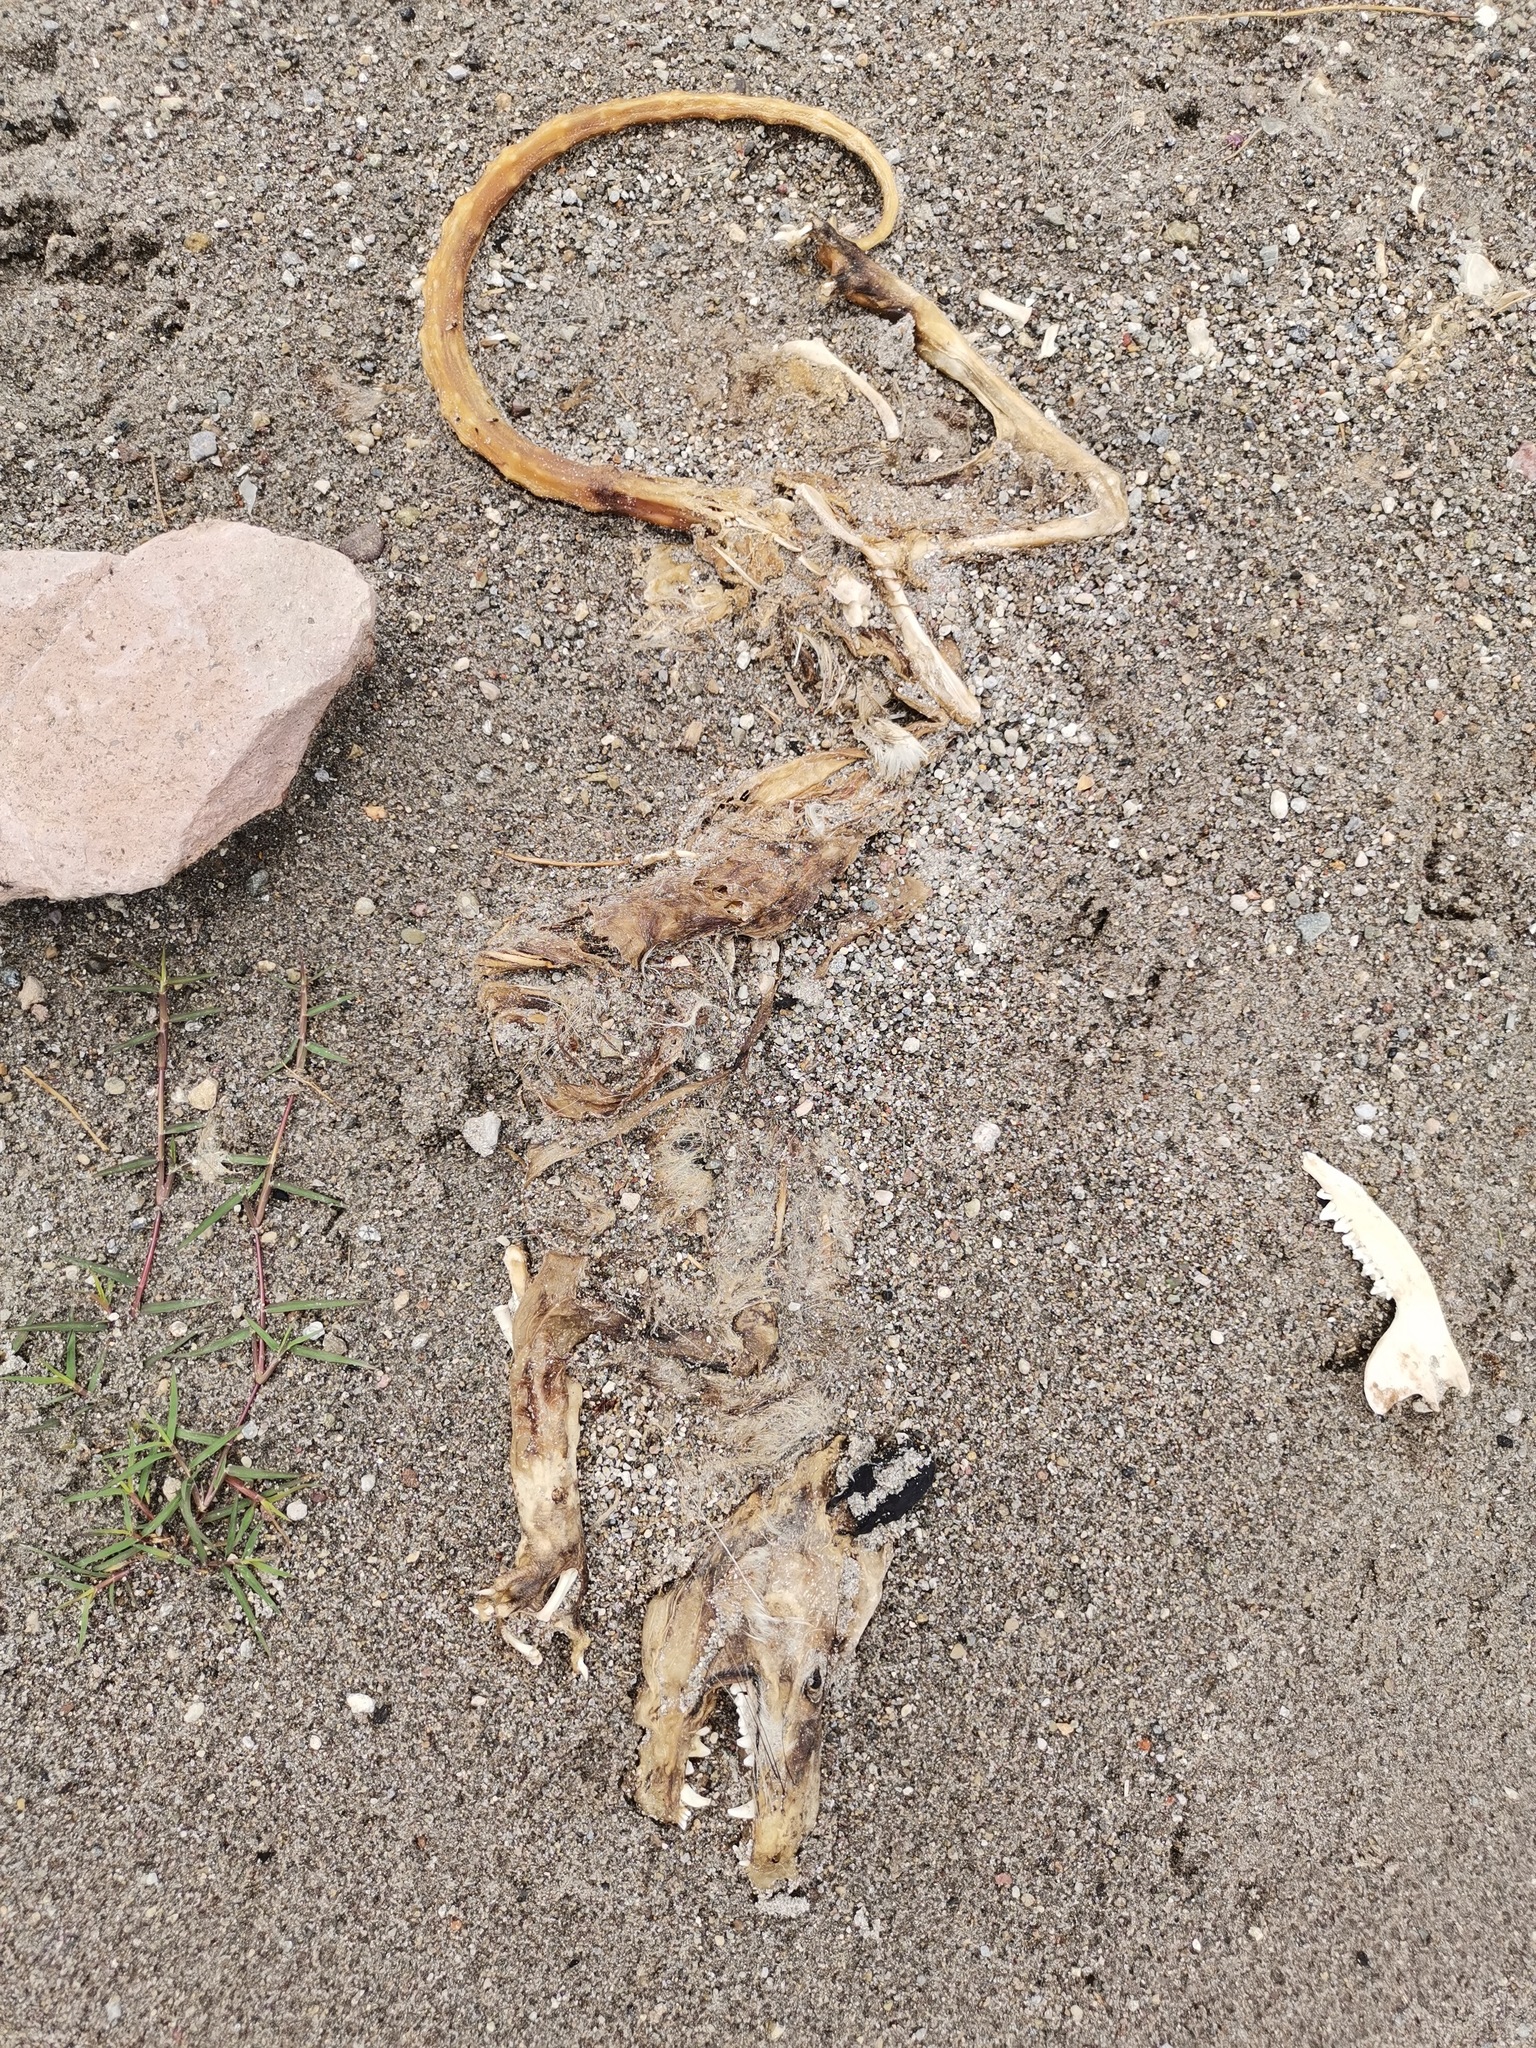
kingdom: Animalia
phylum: Chordata
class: Mammalia
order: Didelphimorphia
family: Didelphidae
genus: Didelphis
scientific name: Didelphis virginiana
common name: Virginia opossum
